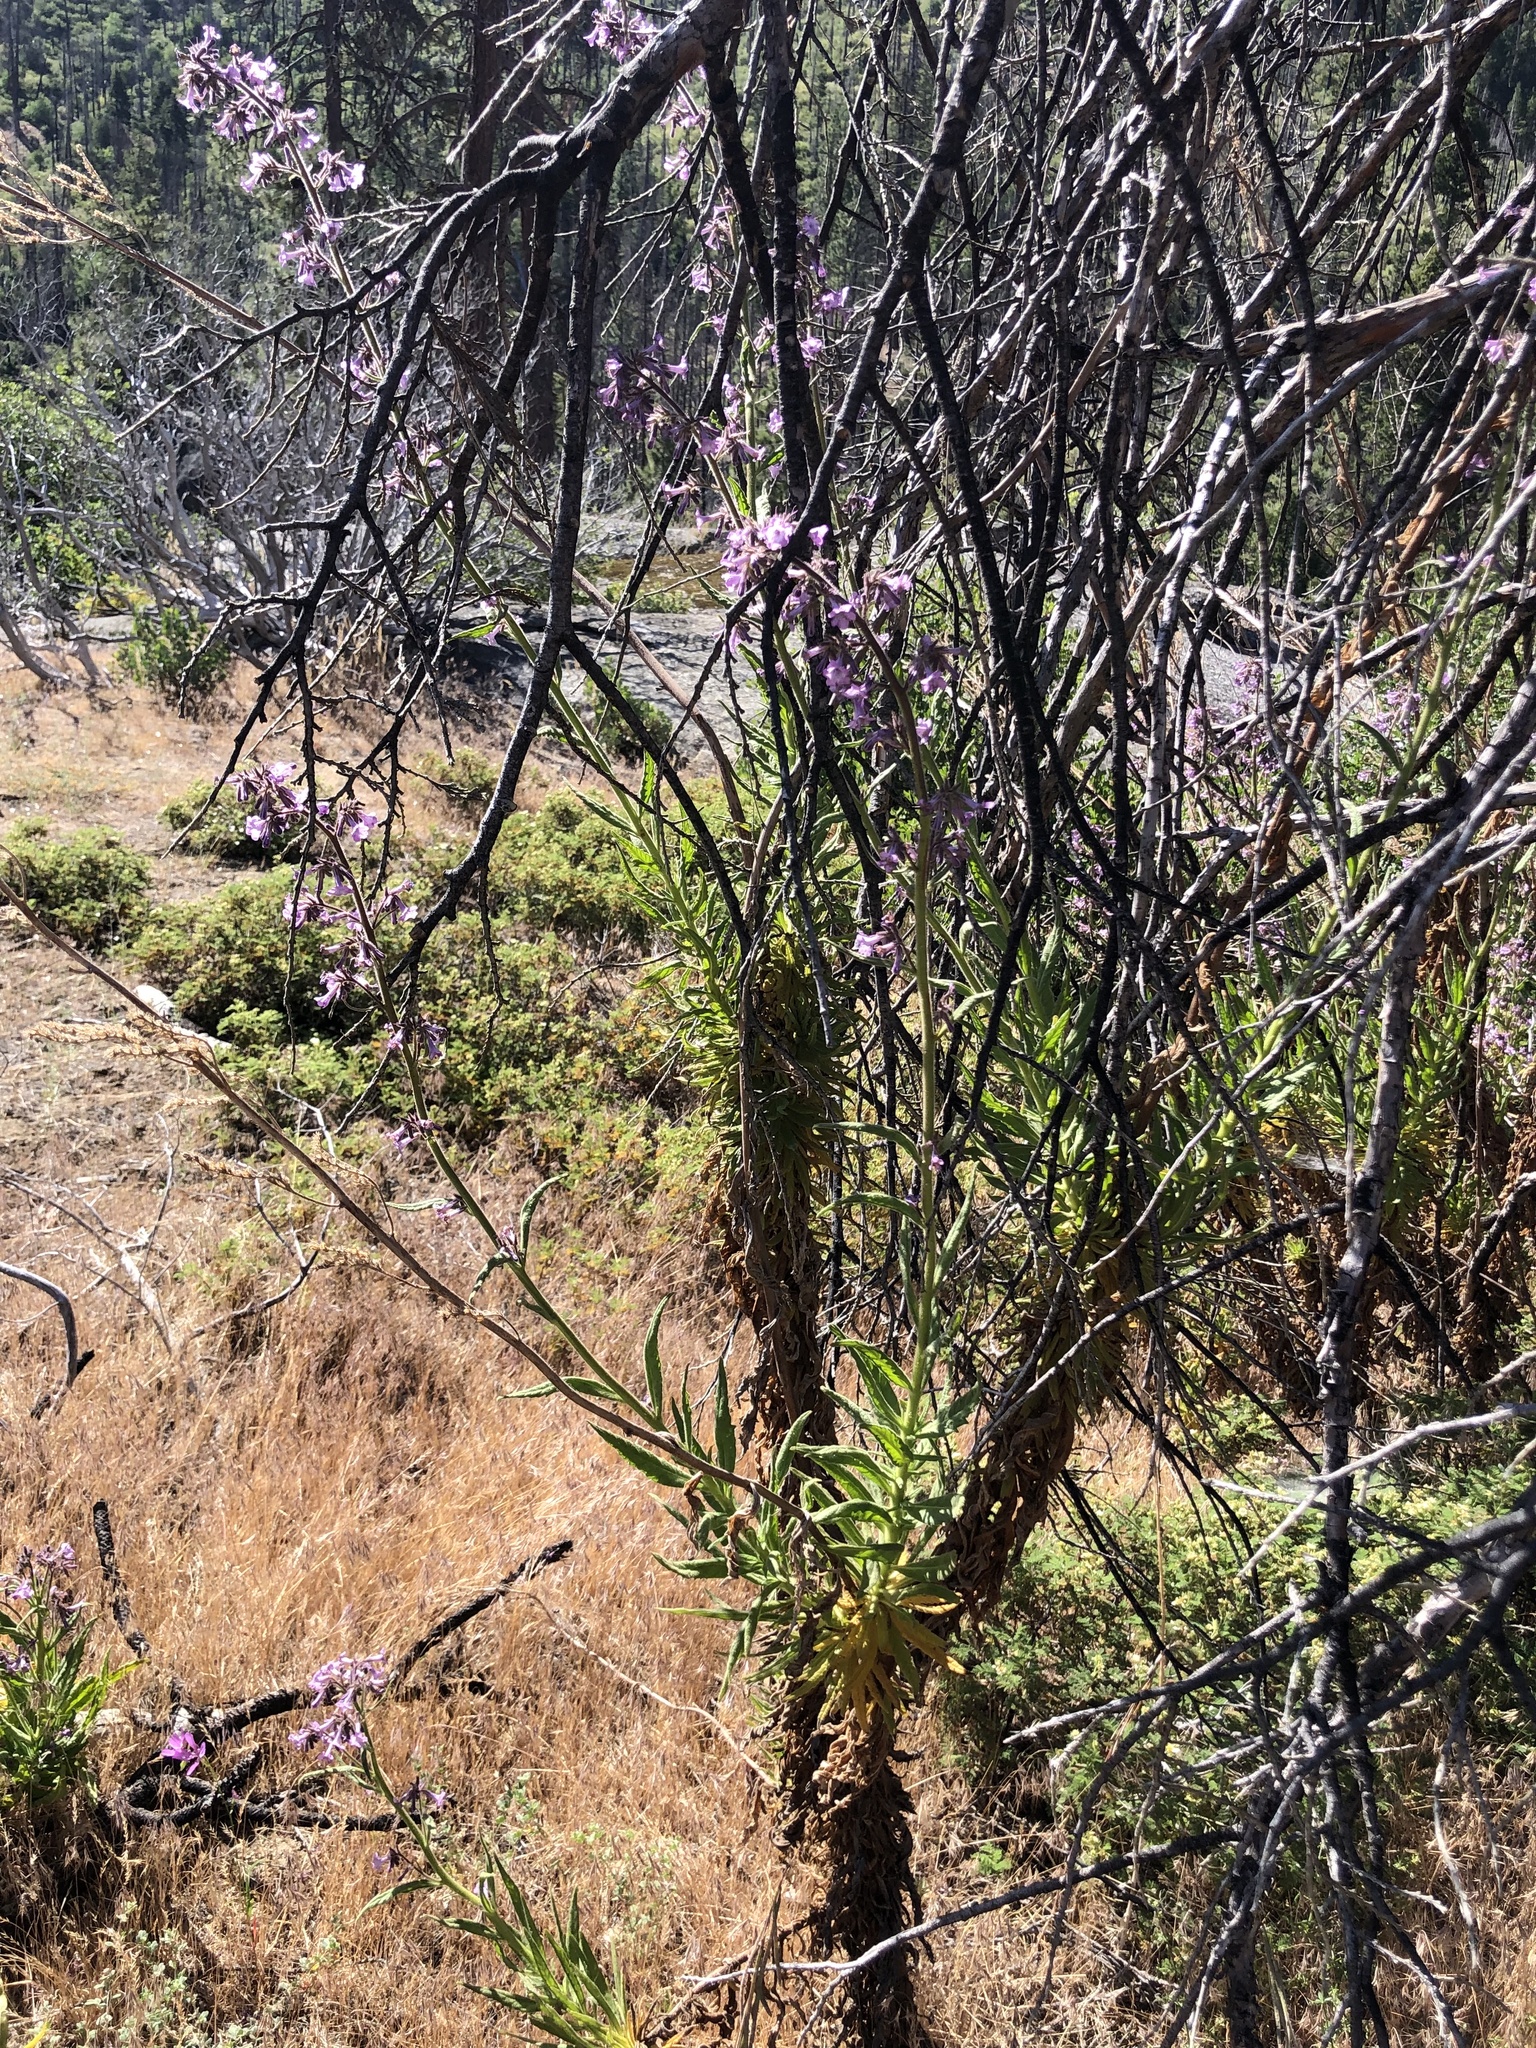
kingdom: Plantae
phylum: Tracheophyta
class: Magnoliopsida
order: Boraginales
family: Namaceae
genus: Turricula
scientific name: Turricula parryi
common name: Poodle-dog-bush
